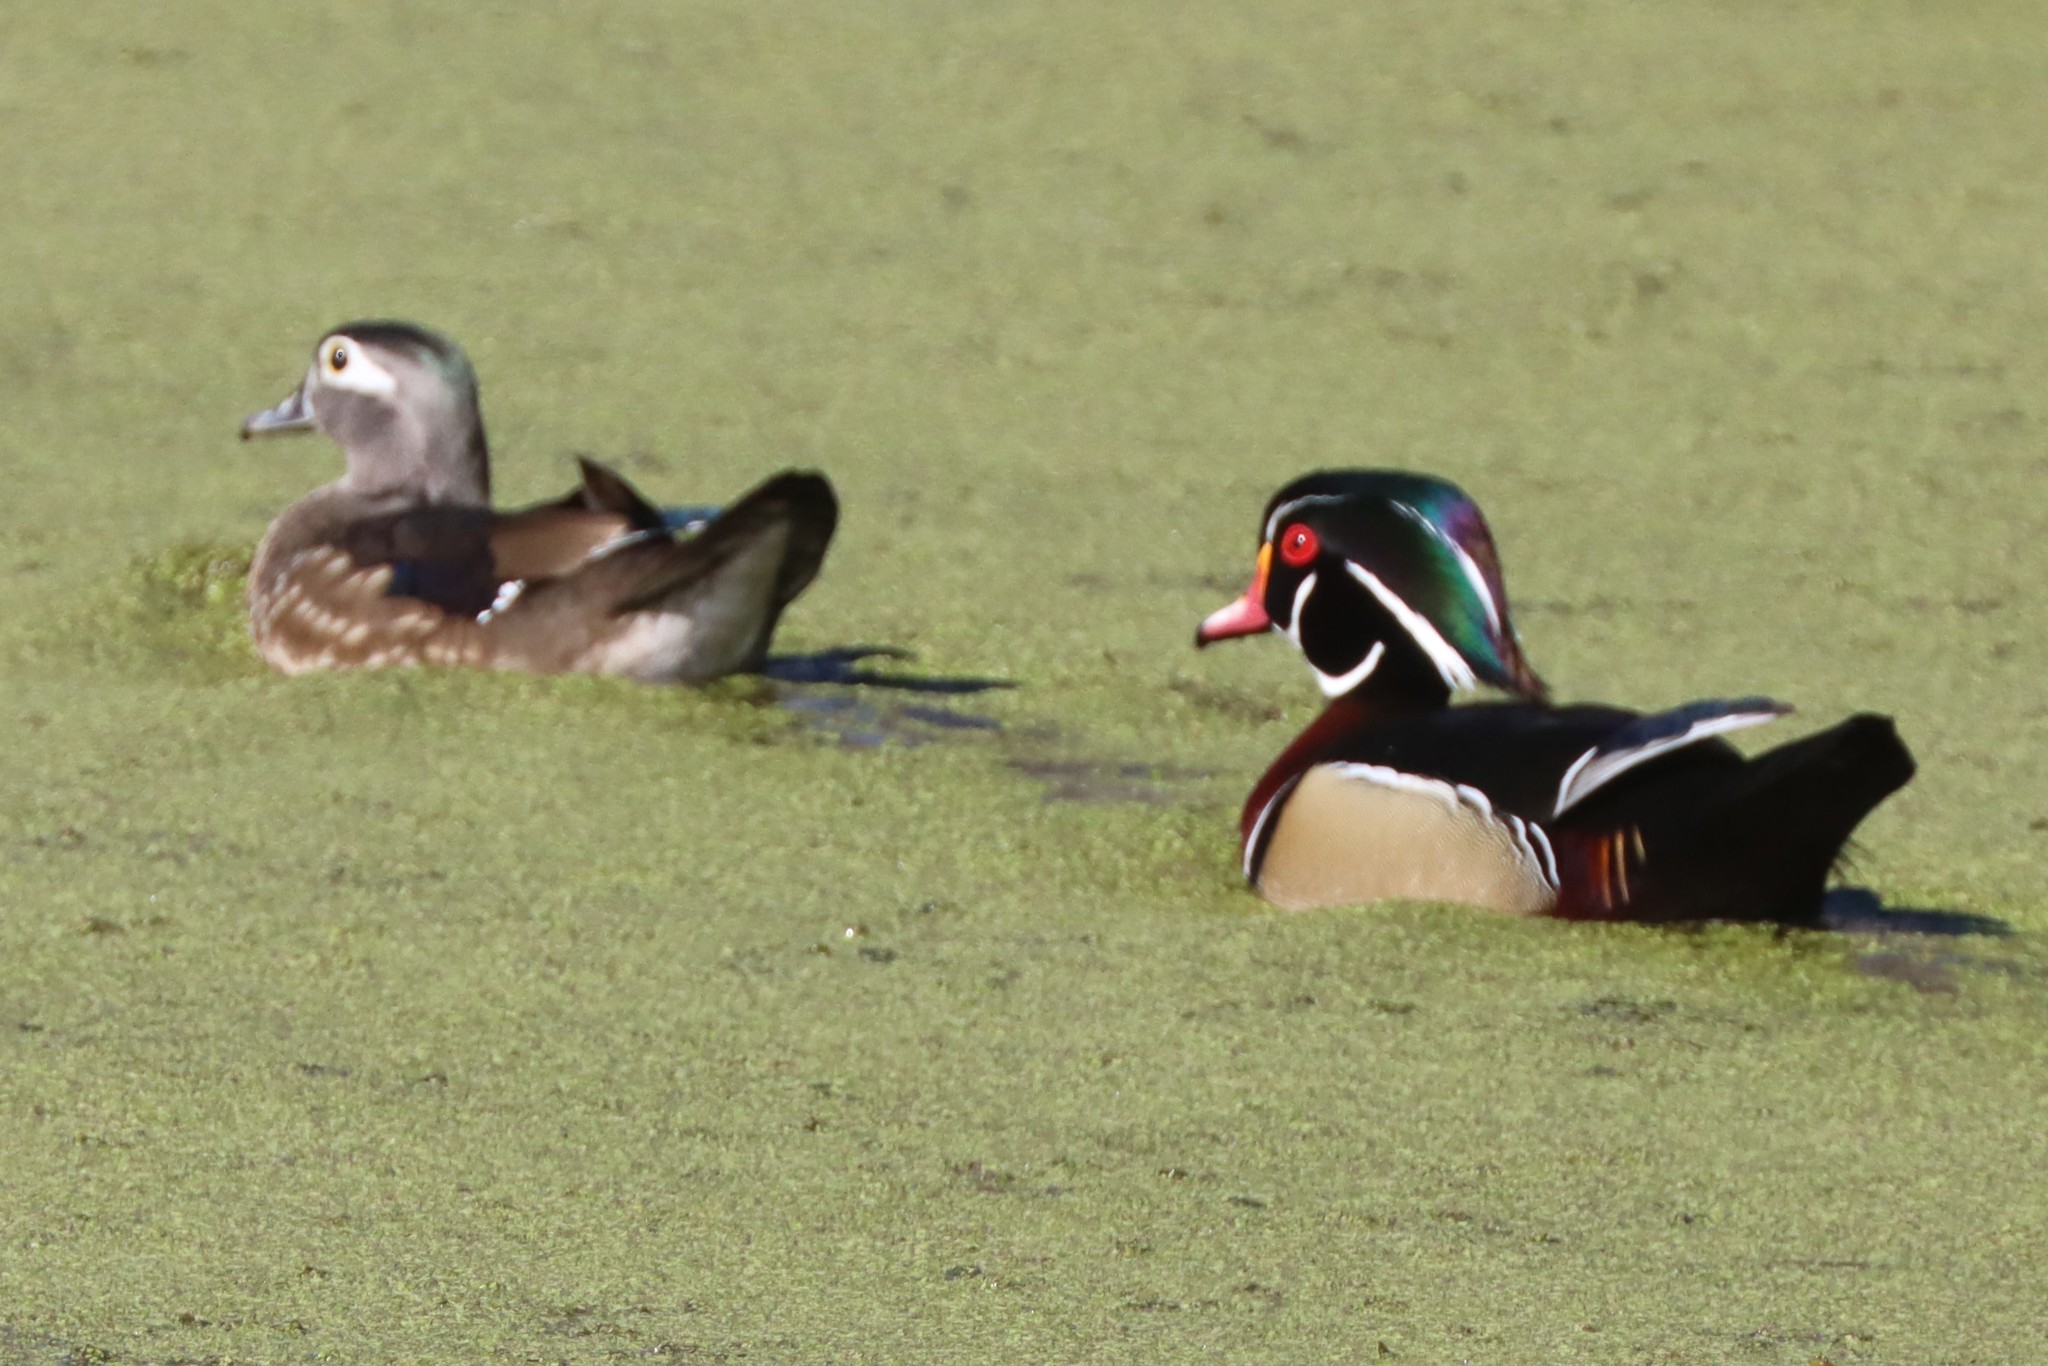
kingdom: Animalia
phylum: Chordata
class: Aves
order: Anseriformes
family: Anatidae
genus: Aix
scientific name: Aix sponsa
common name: Wood duck
